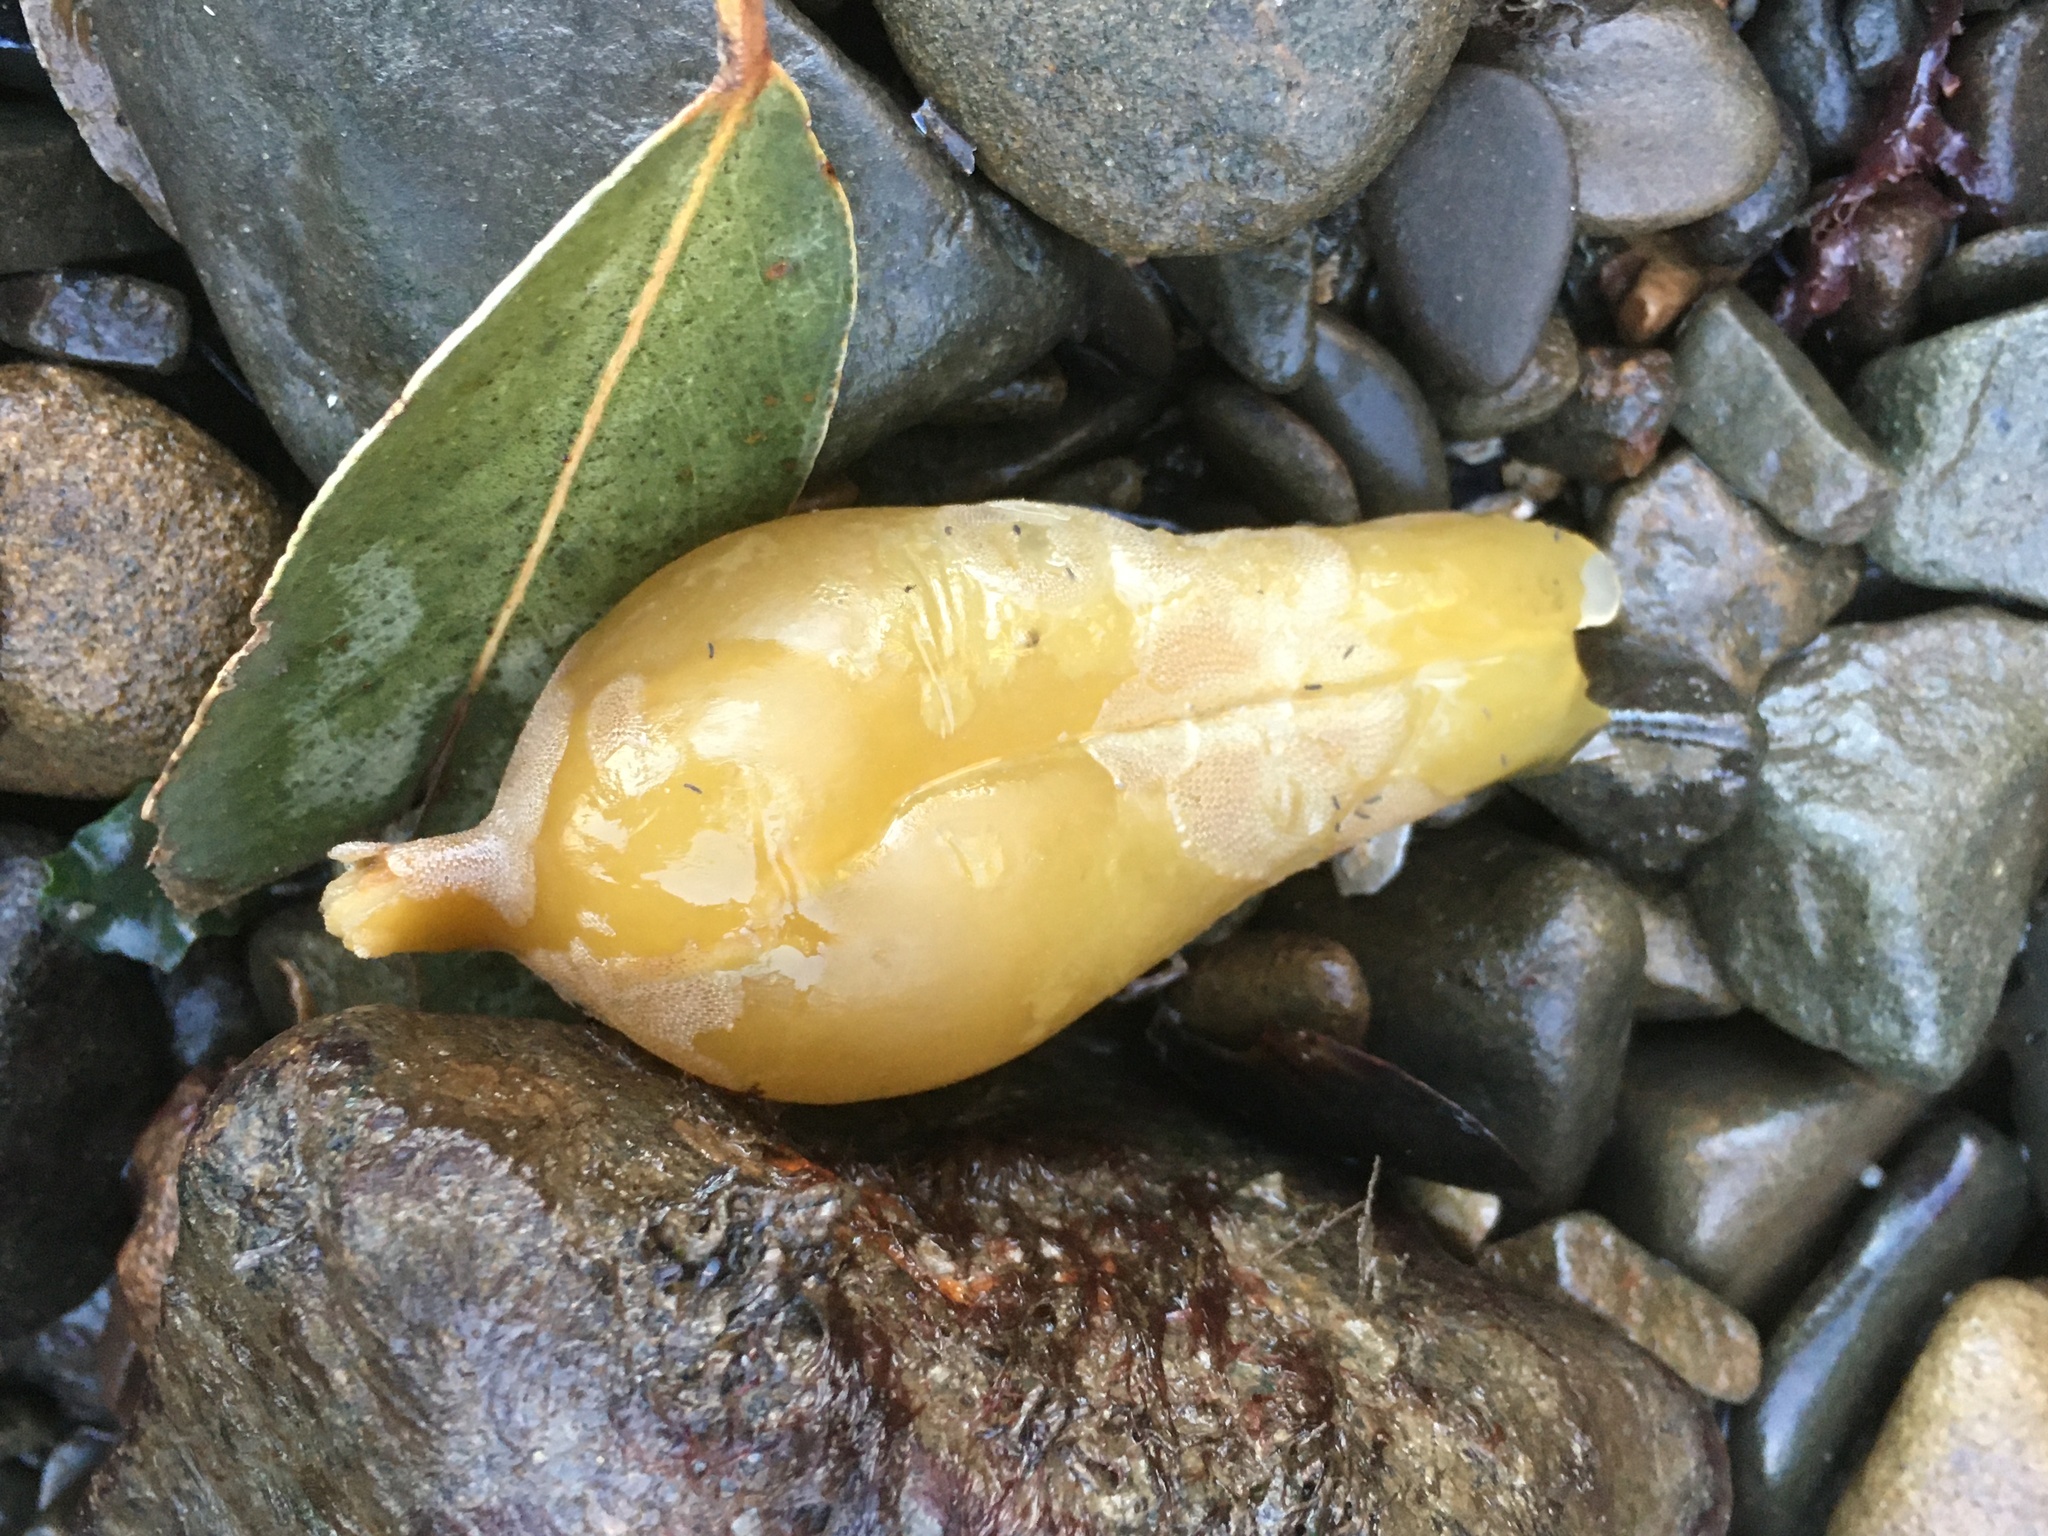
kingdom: Chromista
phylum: Ochrophyta
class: Phaeophyceae
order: Laminariales
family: Laminariaceae
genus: Macrocystis
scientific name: Macrocystis pyrifera
